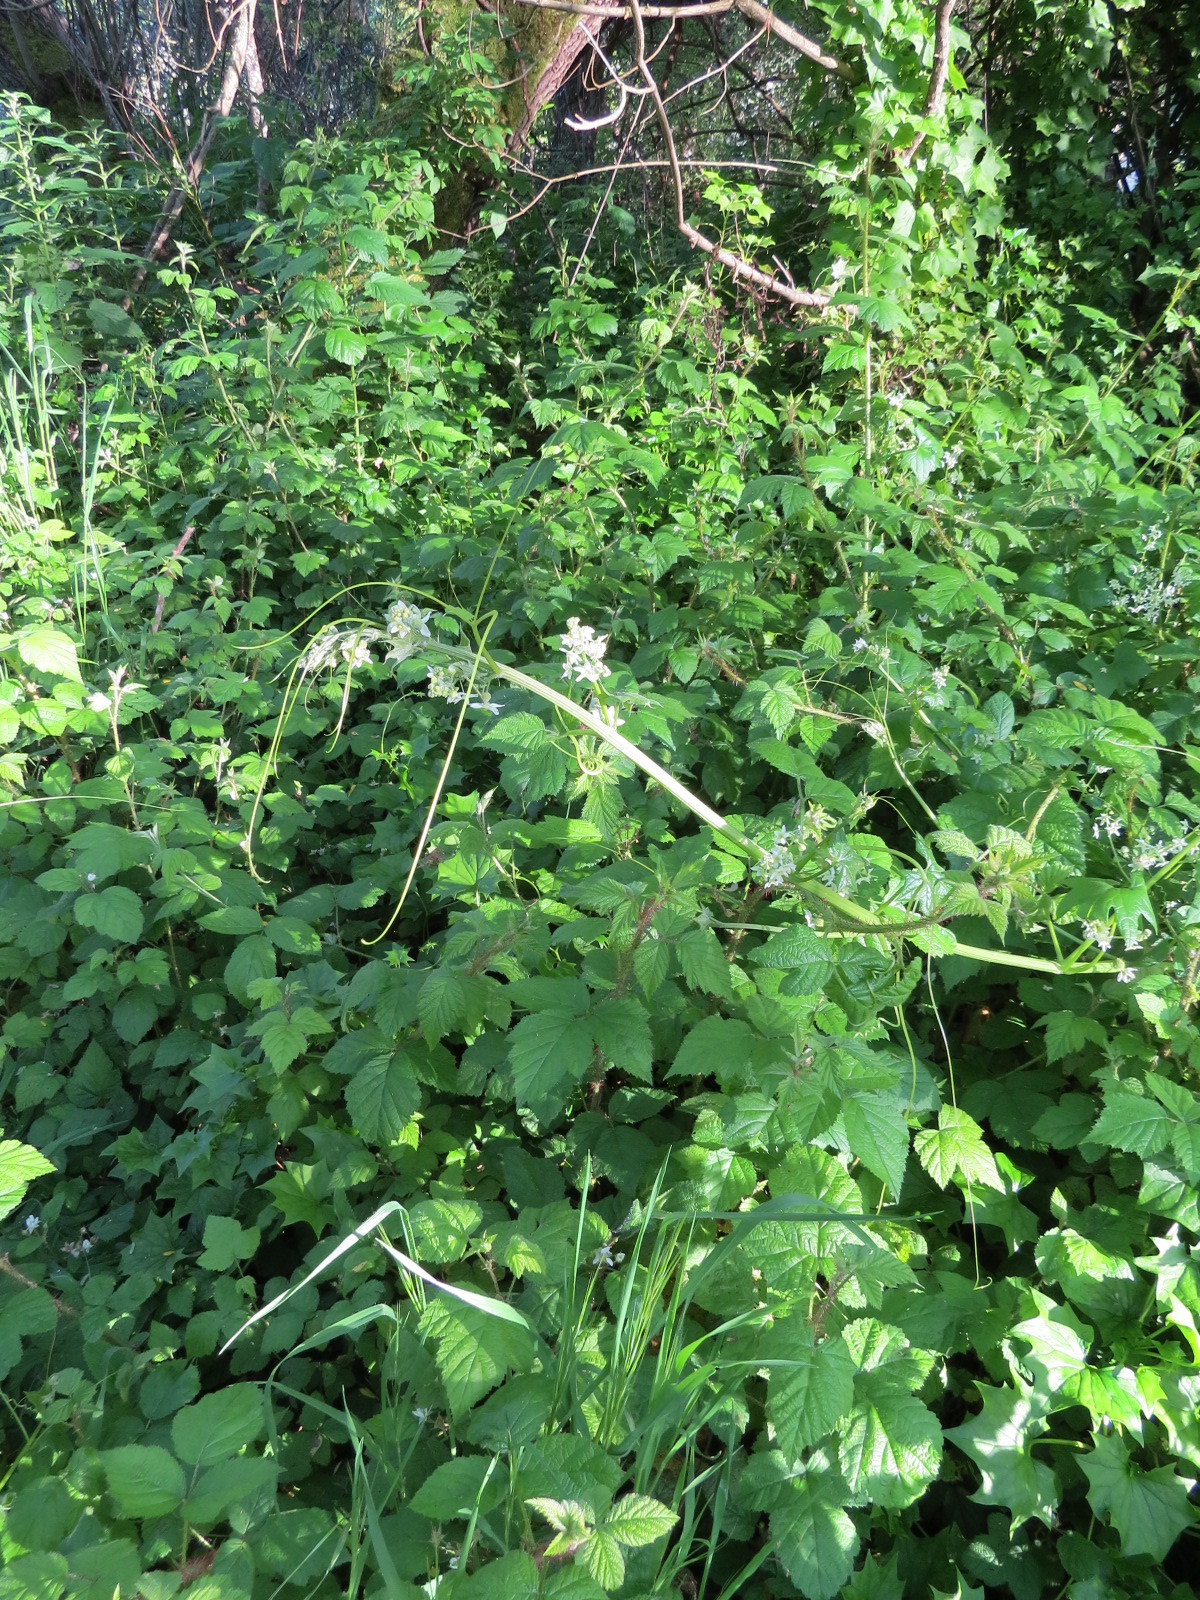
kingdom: Plantae
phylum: Tracheophyta
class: Magnoliopsida
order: Cucurbitales
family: Cucurbitaceae
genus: Marah
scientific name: Marah fabacea
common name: California manroot
